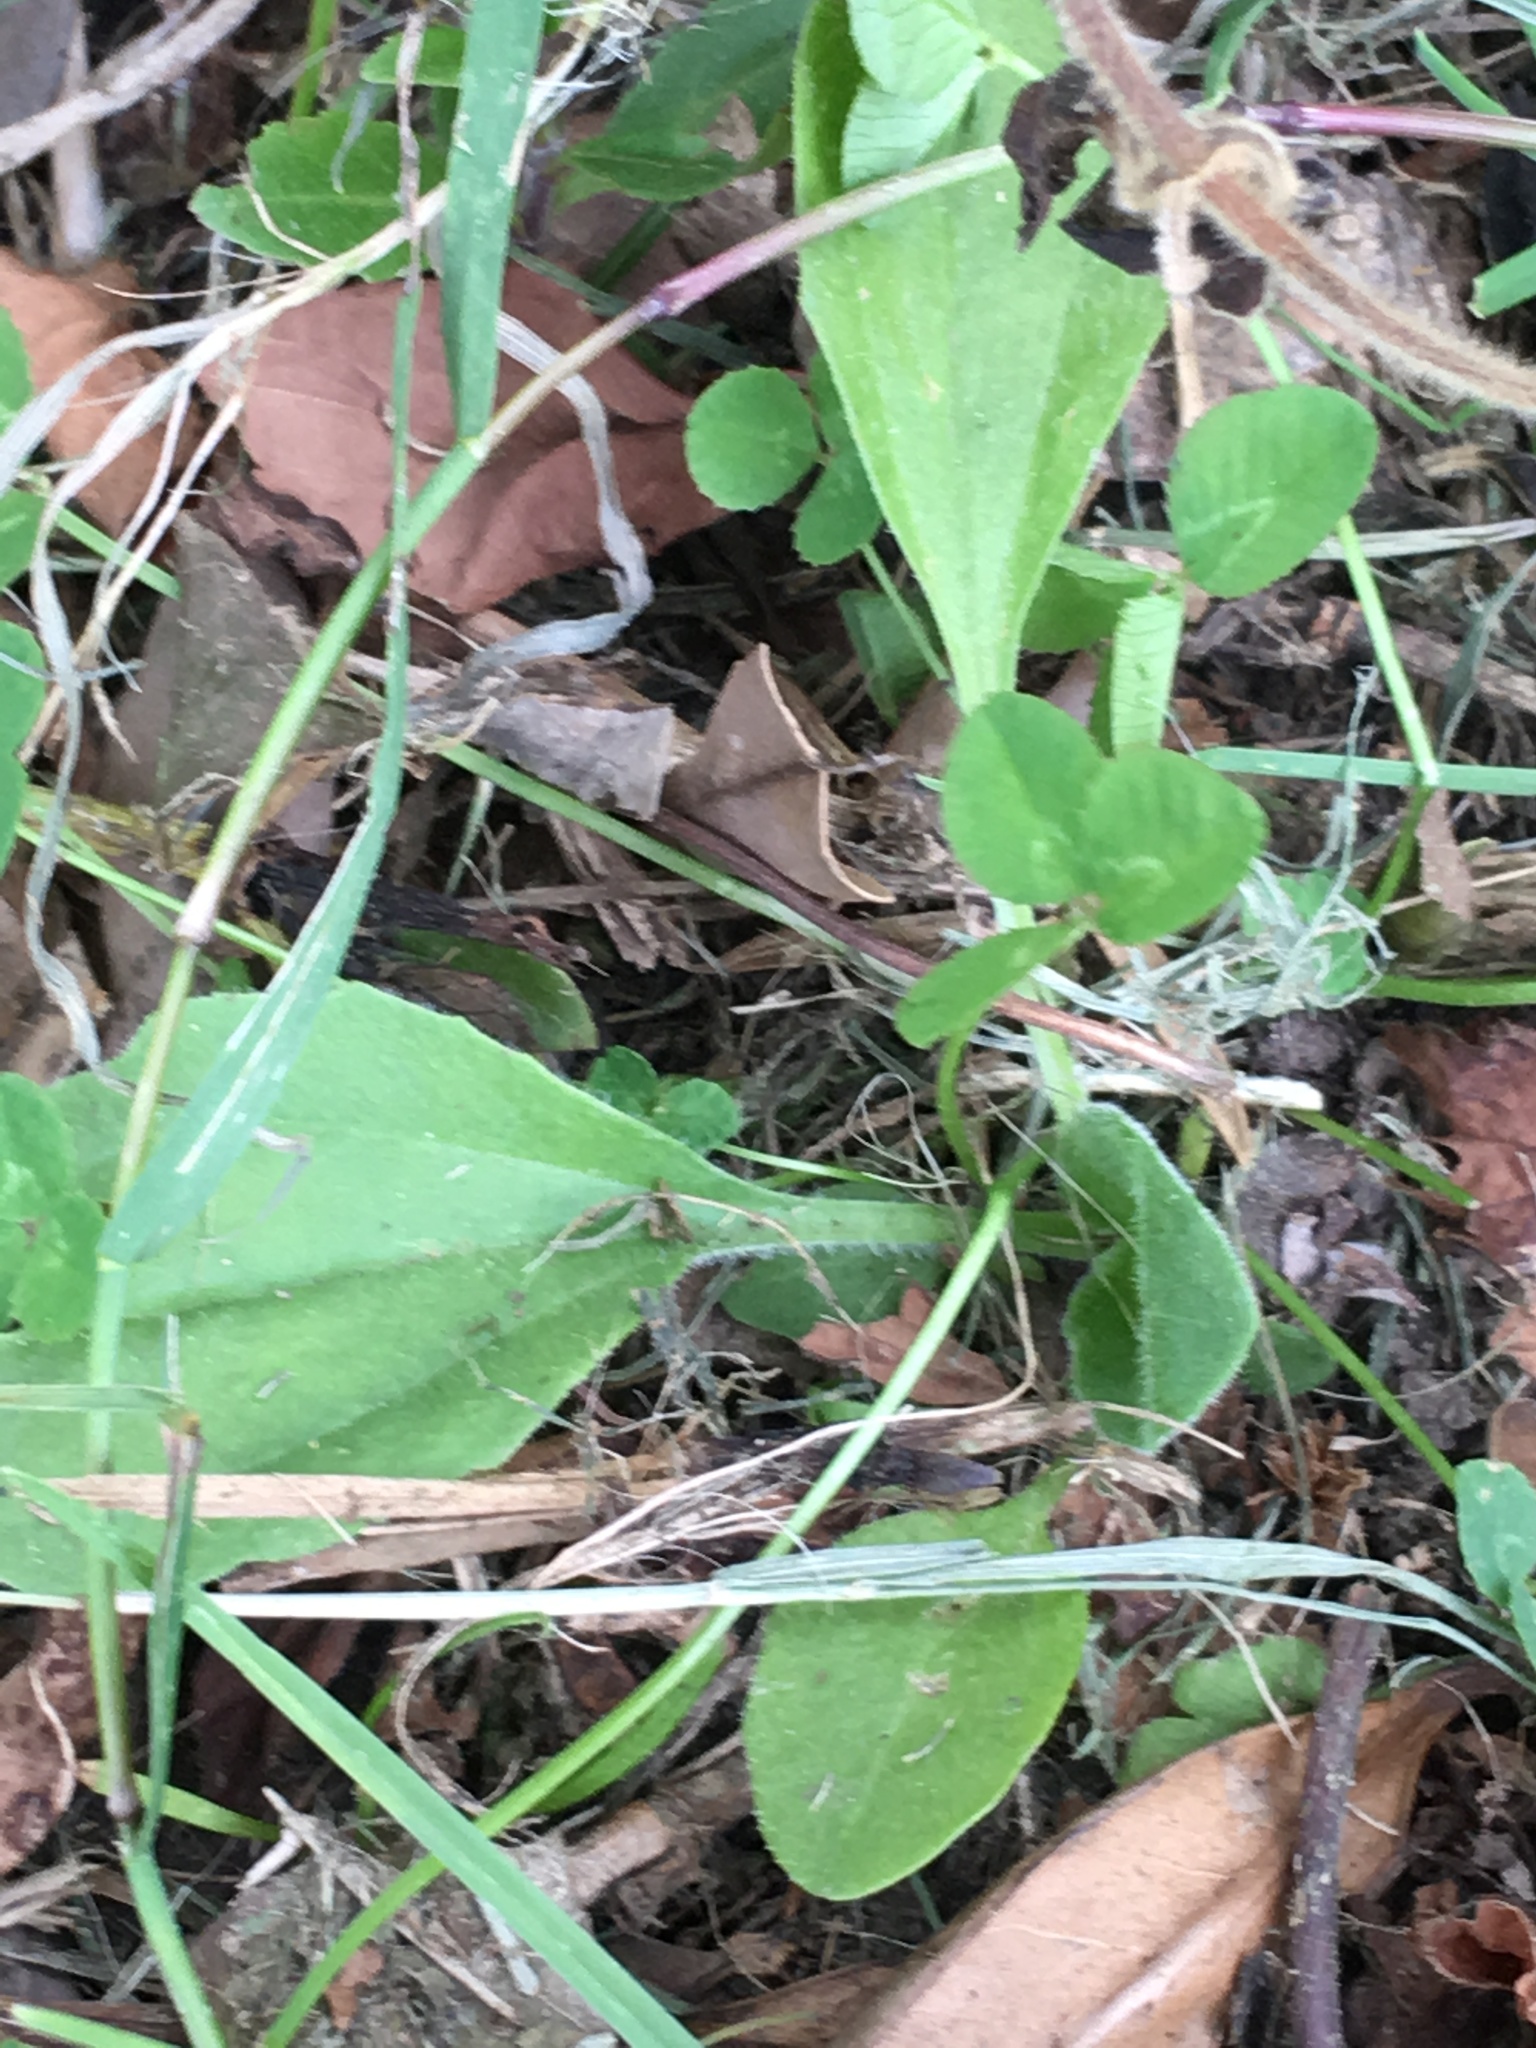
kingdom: Plantae
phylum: Tracheophyta
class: Magnoliopsida
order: Lamiales
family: Plantaginaceae
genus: Plantago
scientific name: Plantago major
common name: Common plantain
